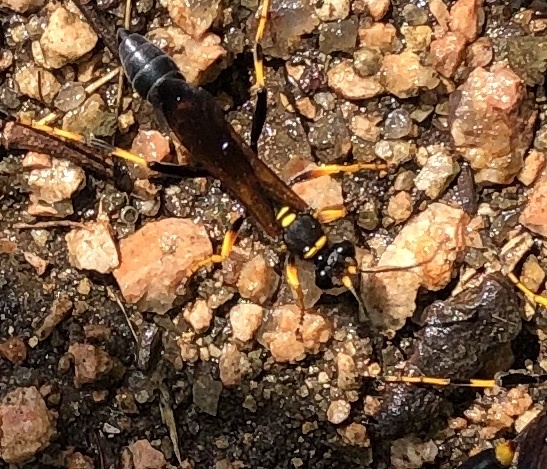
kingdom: Animalia
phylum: Arthropoda
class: Insecta
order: Hymenoptera
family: Sphecidae
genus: Sceliphron
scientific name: Sceliphron caementarium
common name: Mud dauber
